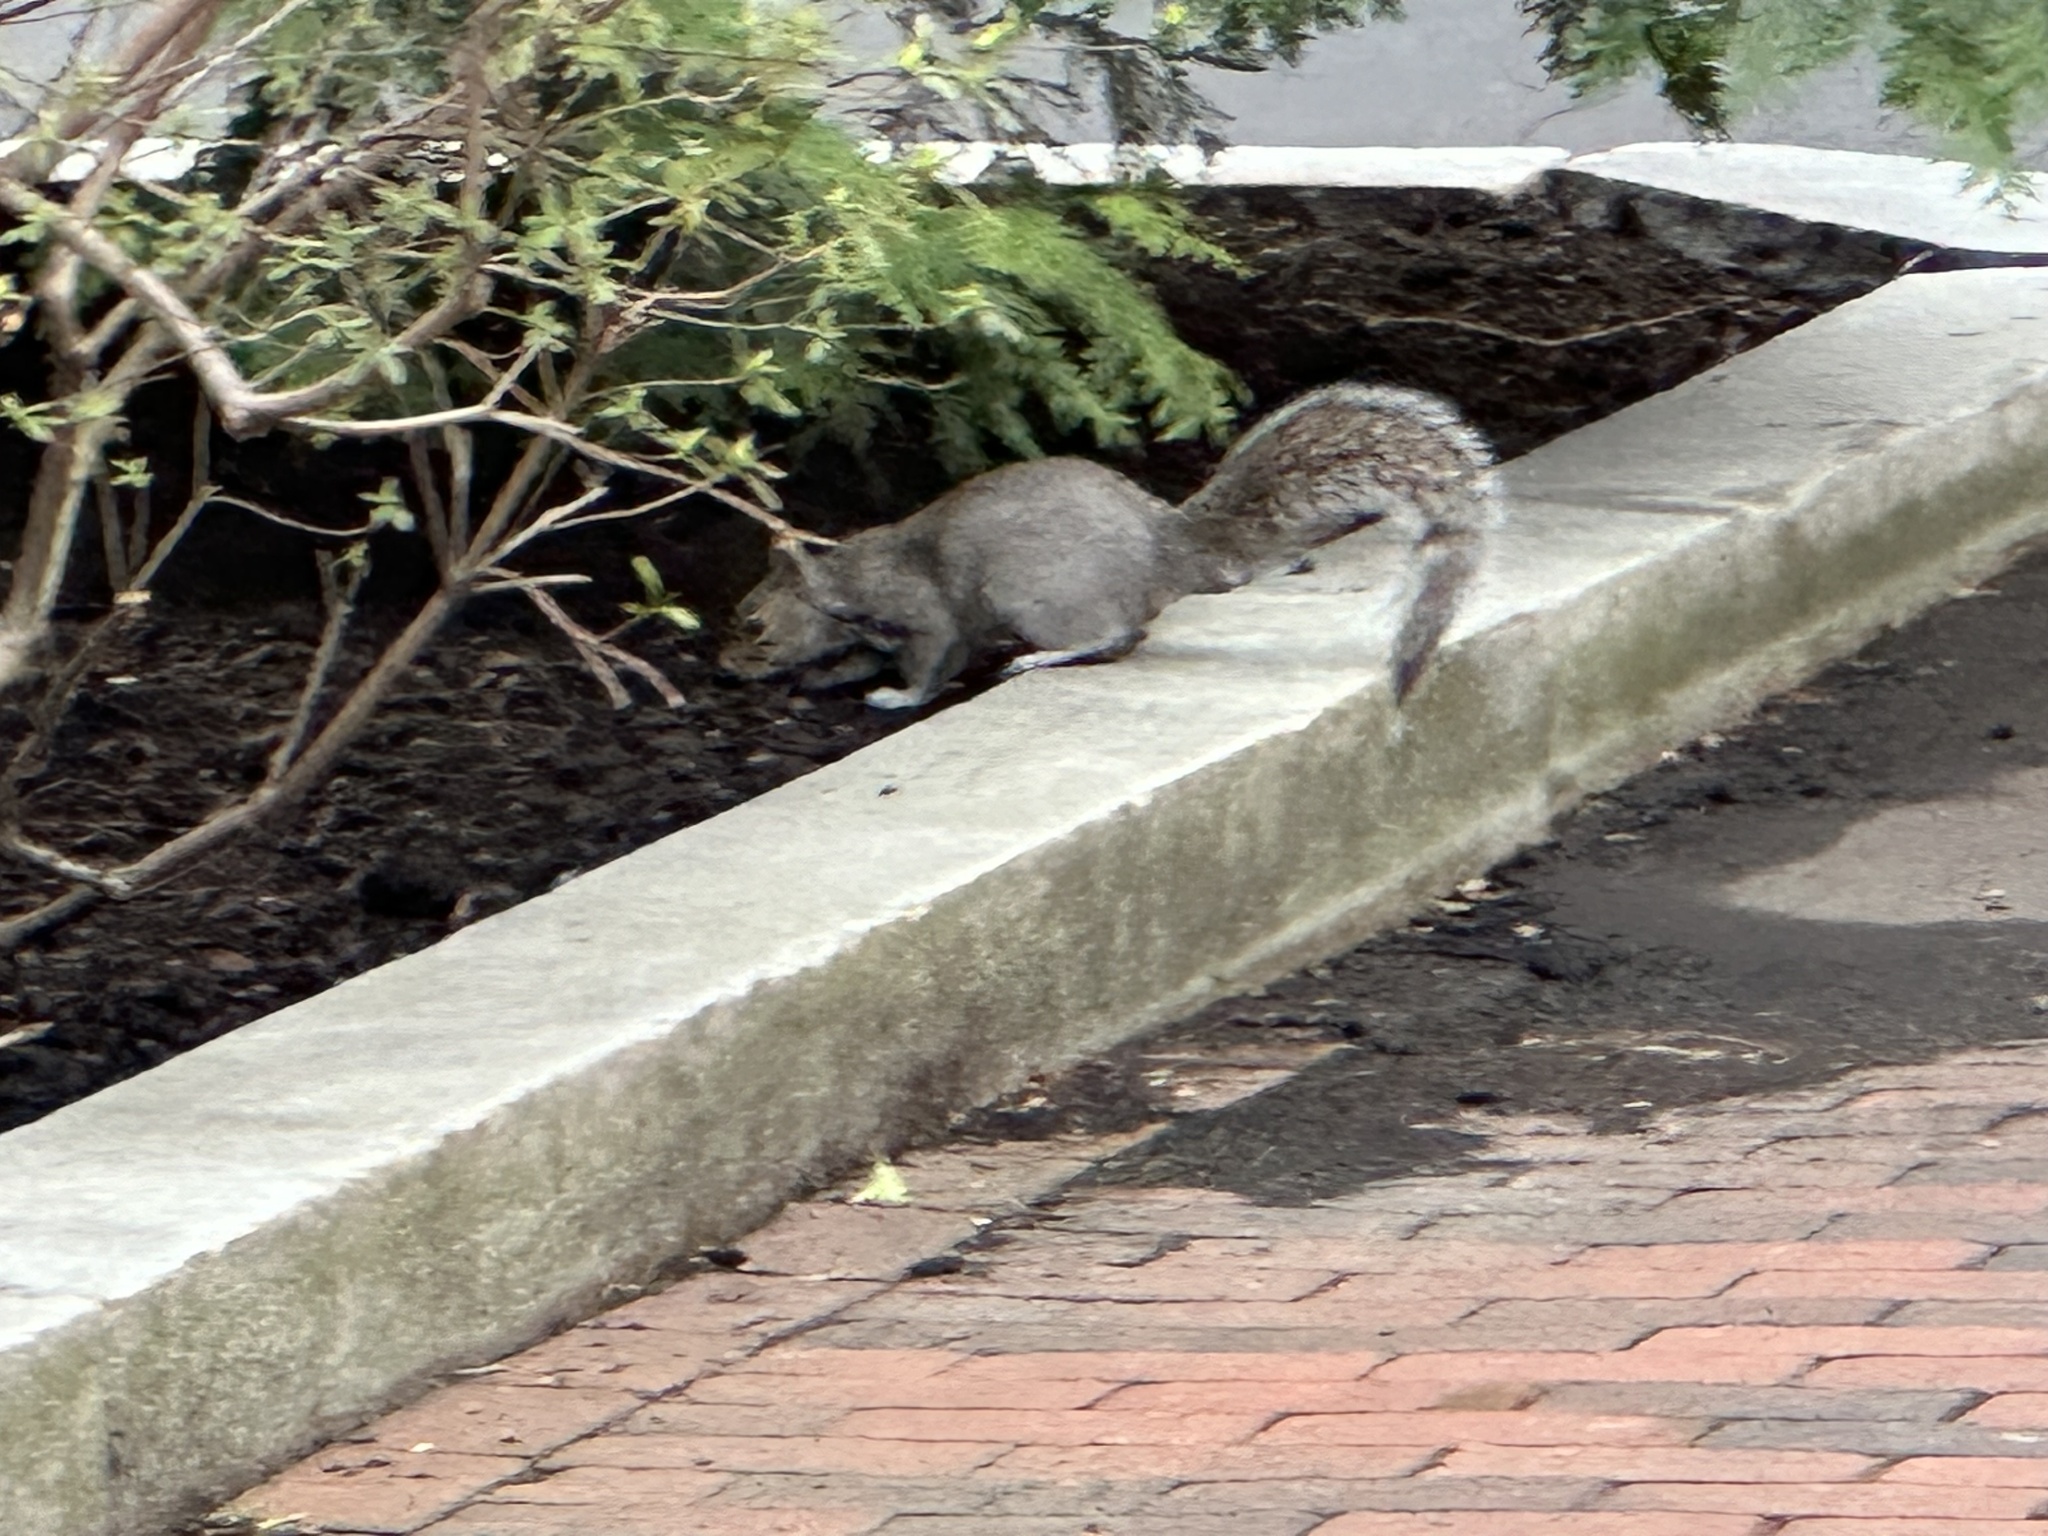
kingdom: Animalia
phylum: Chordata
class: Mammalia
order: Rodentia
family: Sciuridae
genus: Sciurus
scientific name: Sciurus carolinensis
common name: Eastern gray squirrel
